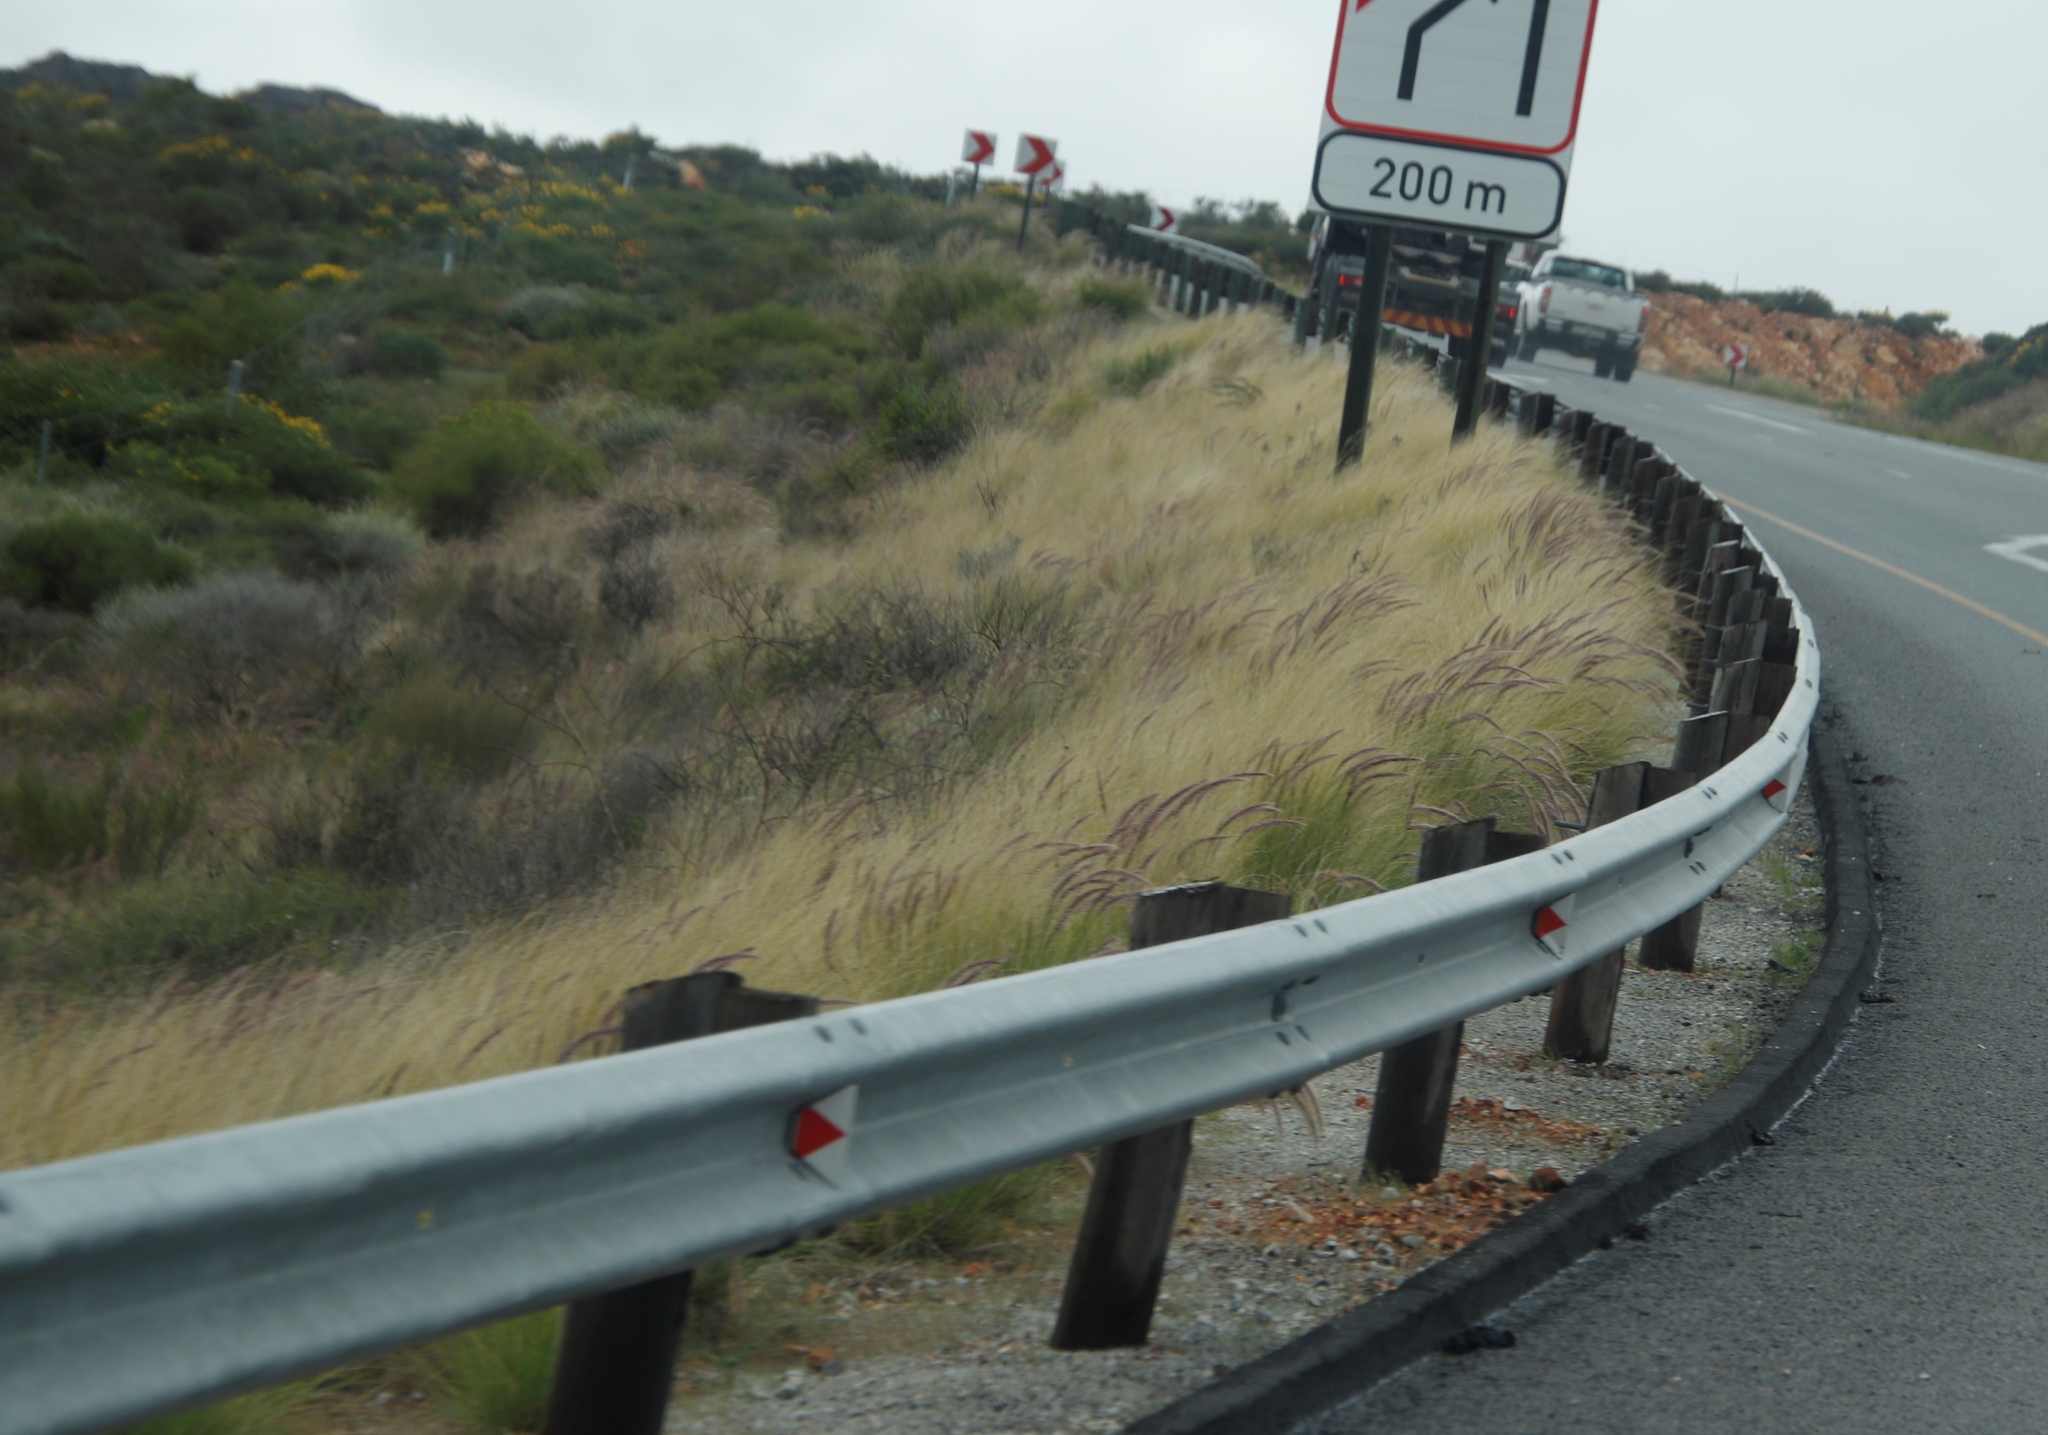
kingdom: Plantae
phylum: Tracheophyta
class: Liliopsida
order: Poales
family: Poaceae
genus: Cenchrus
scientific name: Cenchrus setaceus
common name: Crimson fountaingrass
